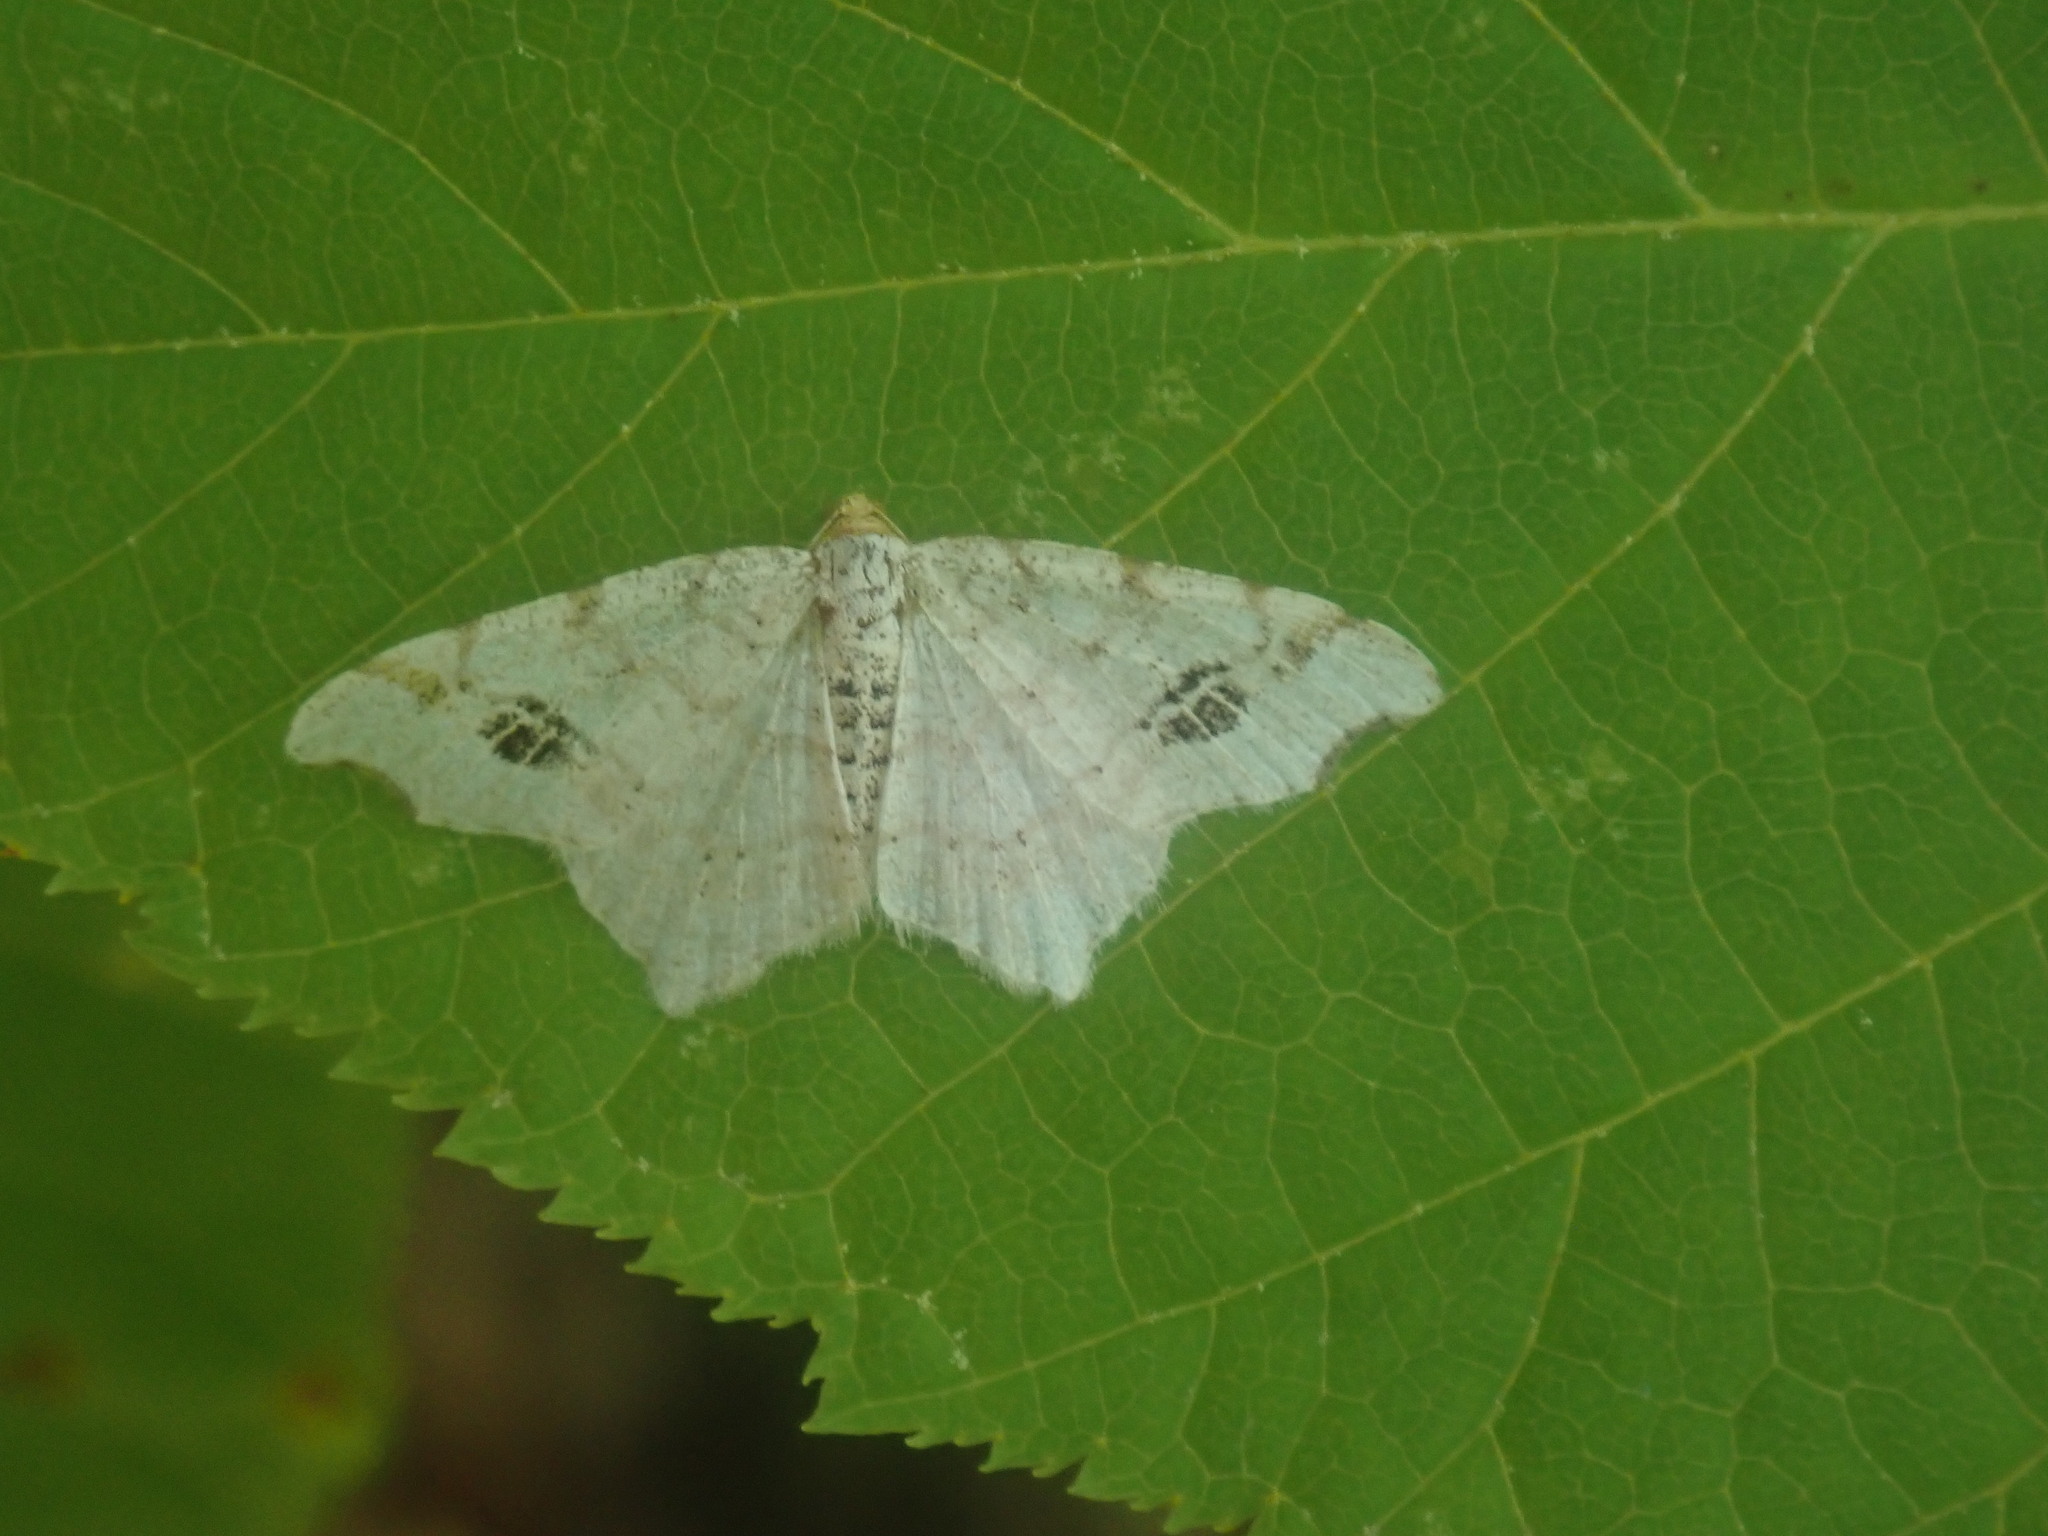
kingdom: Animalia
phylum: Arthropoda
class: Insecta
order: Lepidoptera
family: Geometridae
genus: Macaria
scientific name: Macaria aemulataria
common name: Common angle
